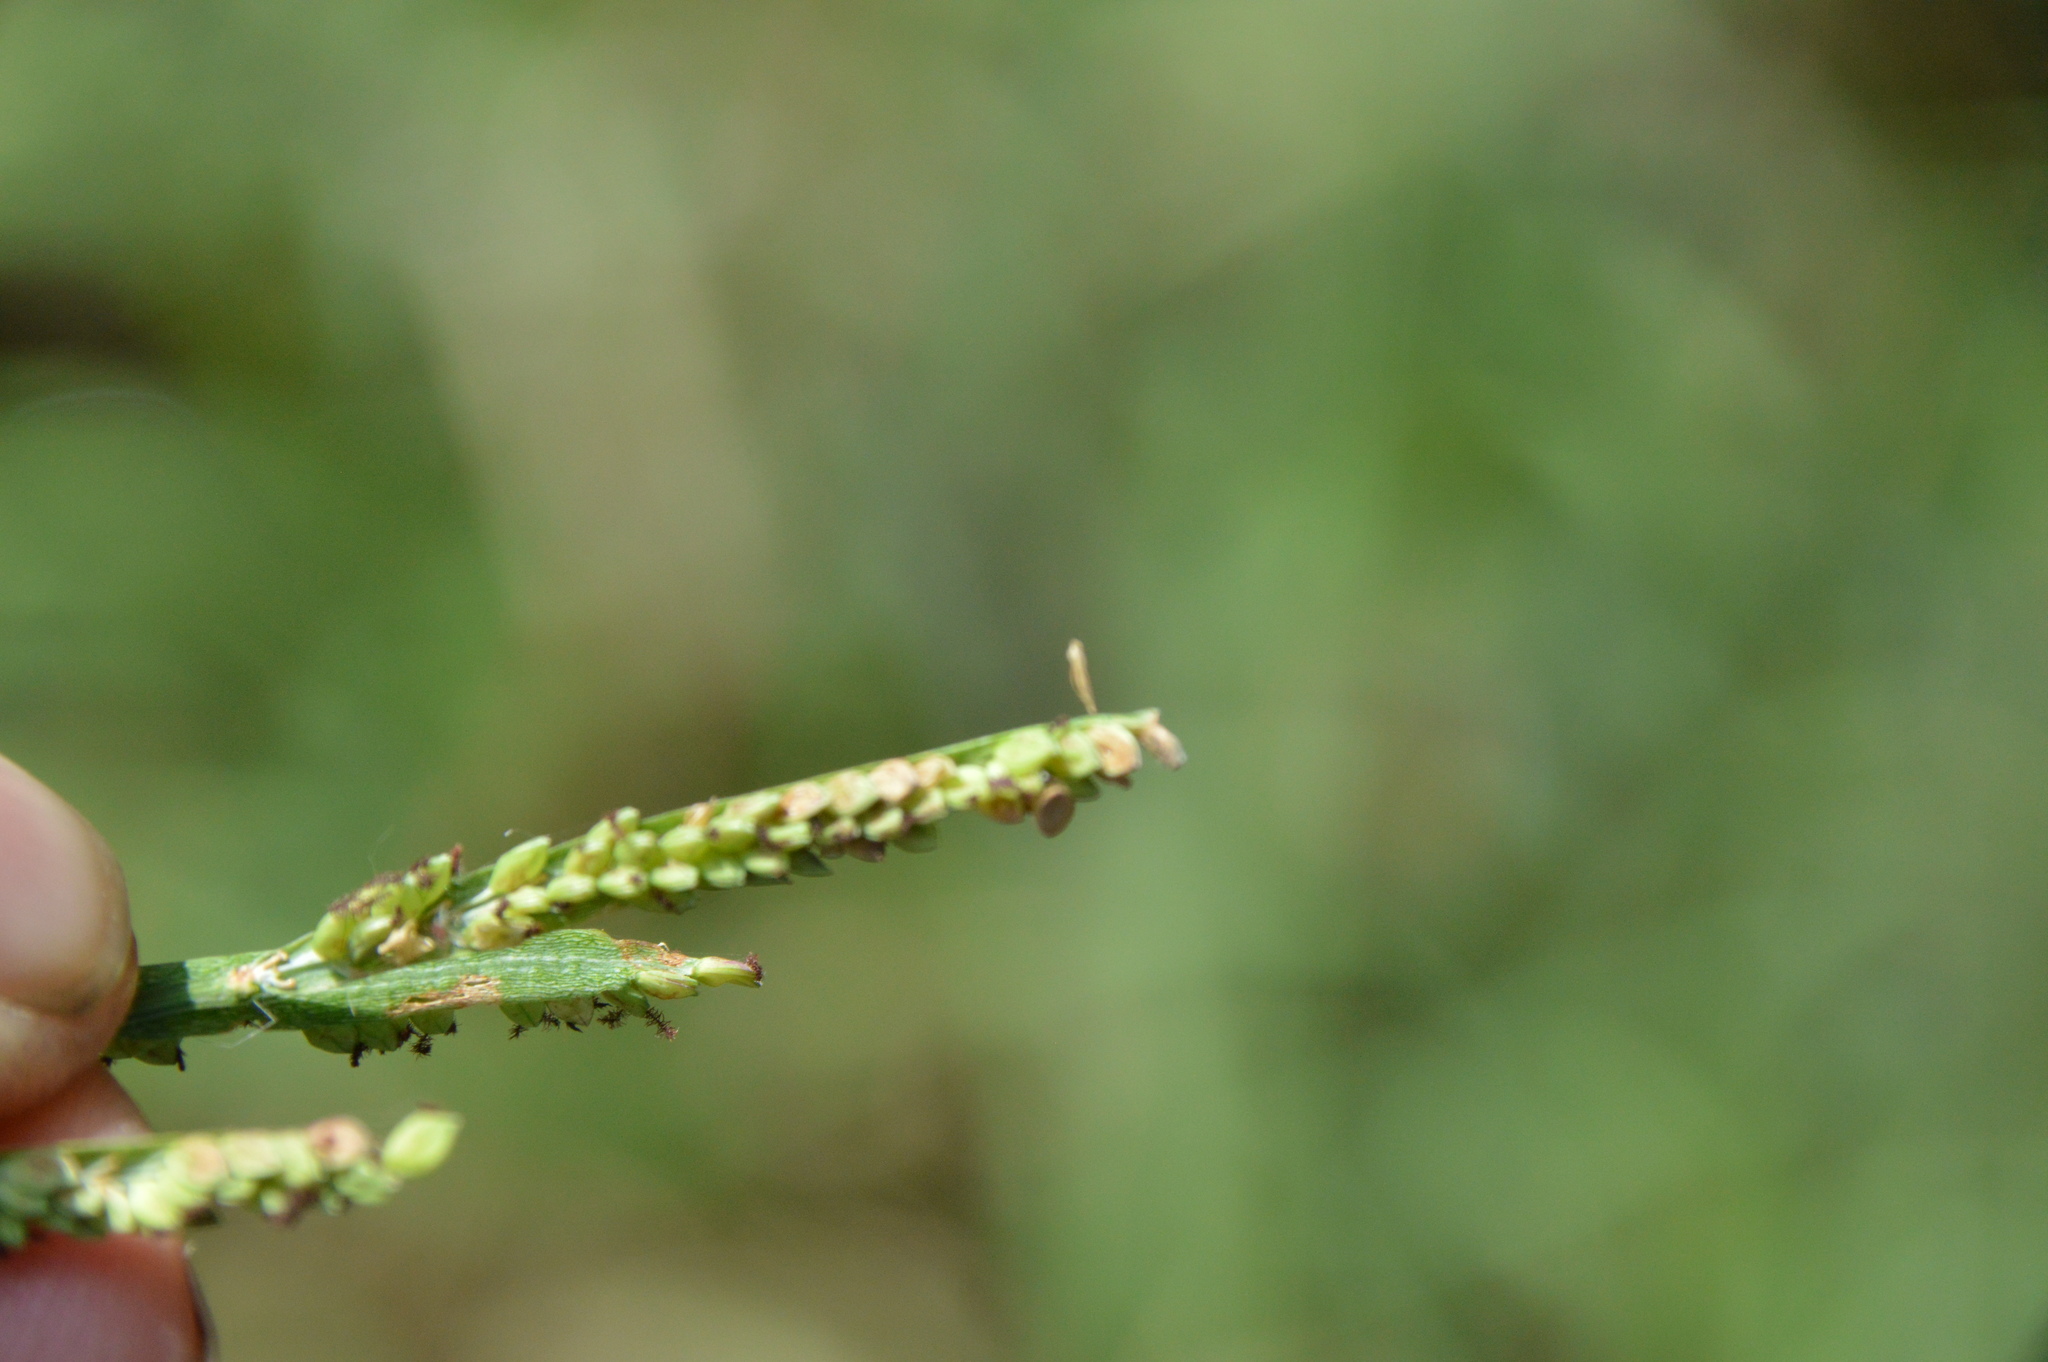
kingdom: Plantae
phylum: Tracheophyta
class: Liliopsida
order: Poales
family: Poaceae
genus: Paspalum
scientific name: Paspalum denticulatum
